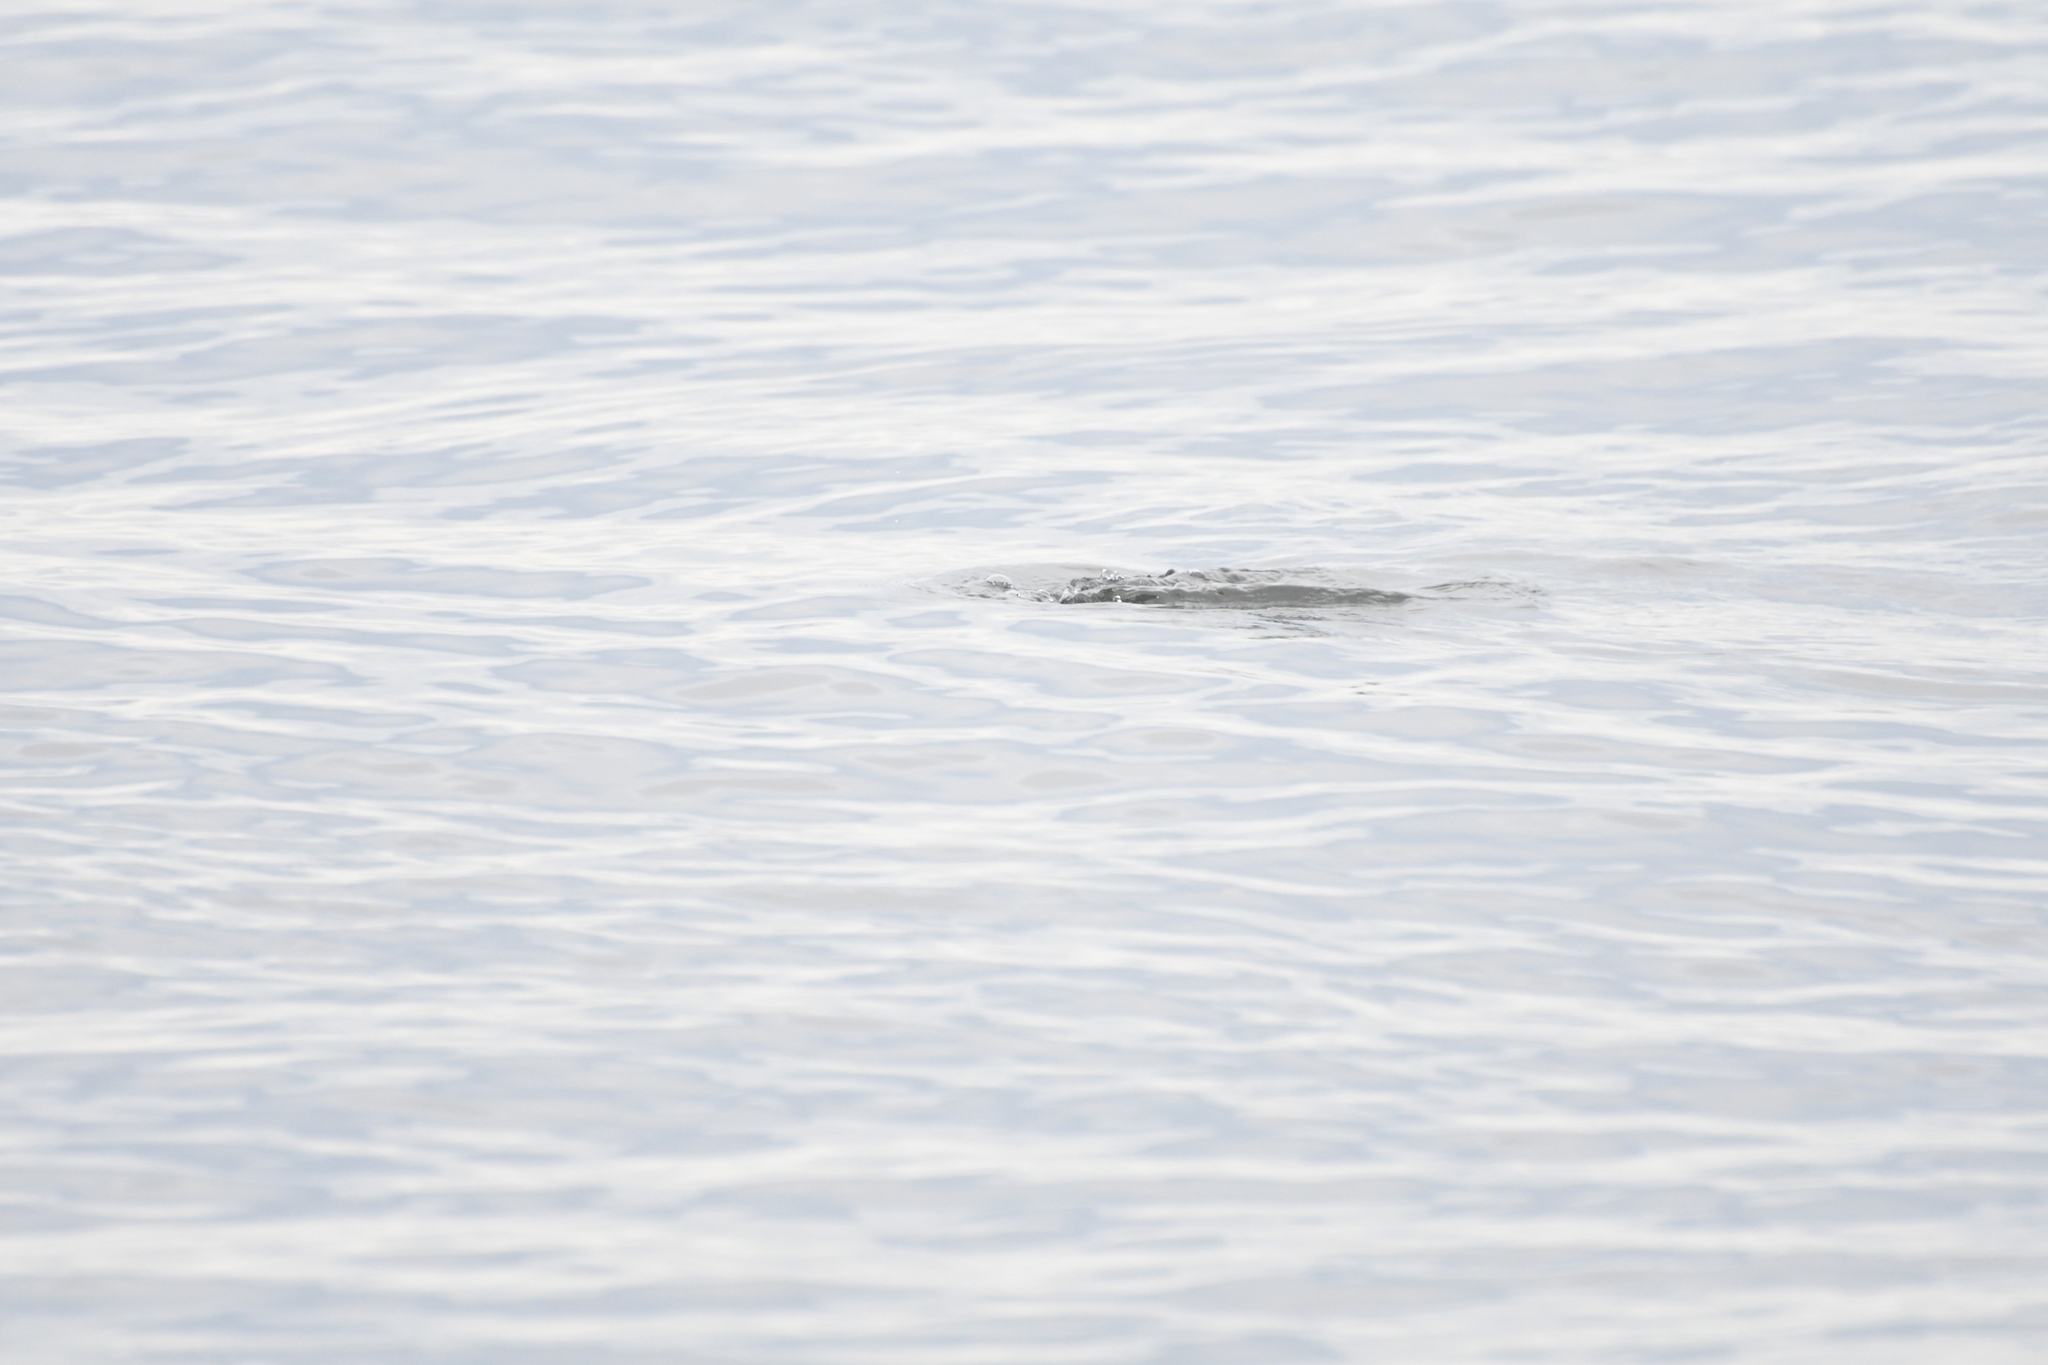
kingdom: Animalia
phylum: Chordata
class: Aves
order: Podicipediformes
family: Podicipedidae
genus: Podiceps
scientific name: Podiceps nigricollis
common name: Black-necked grebe
